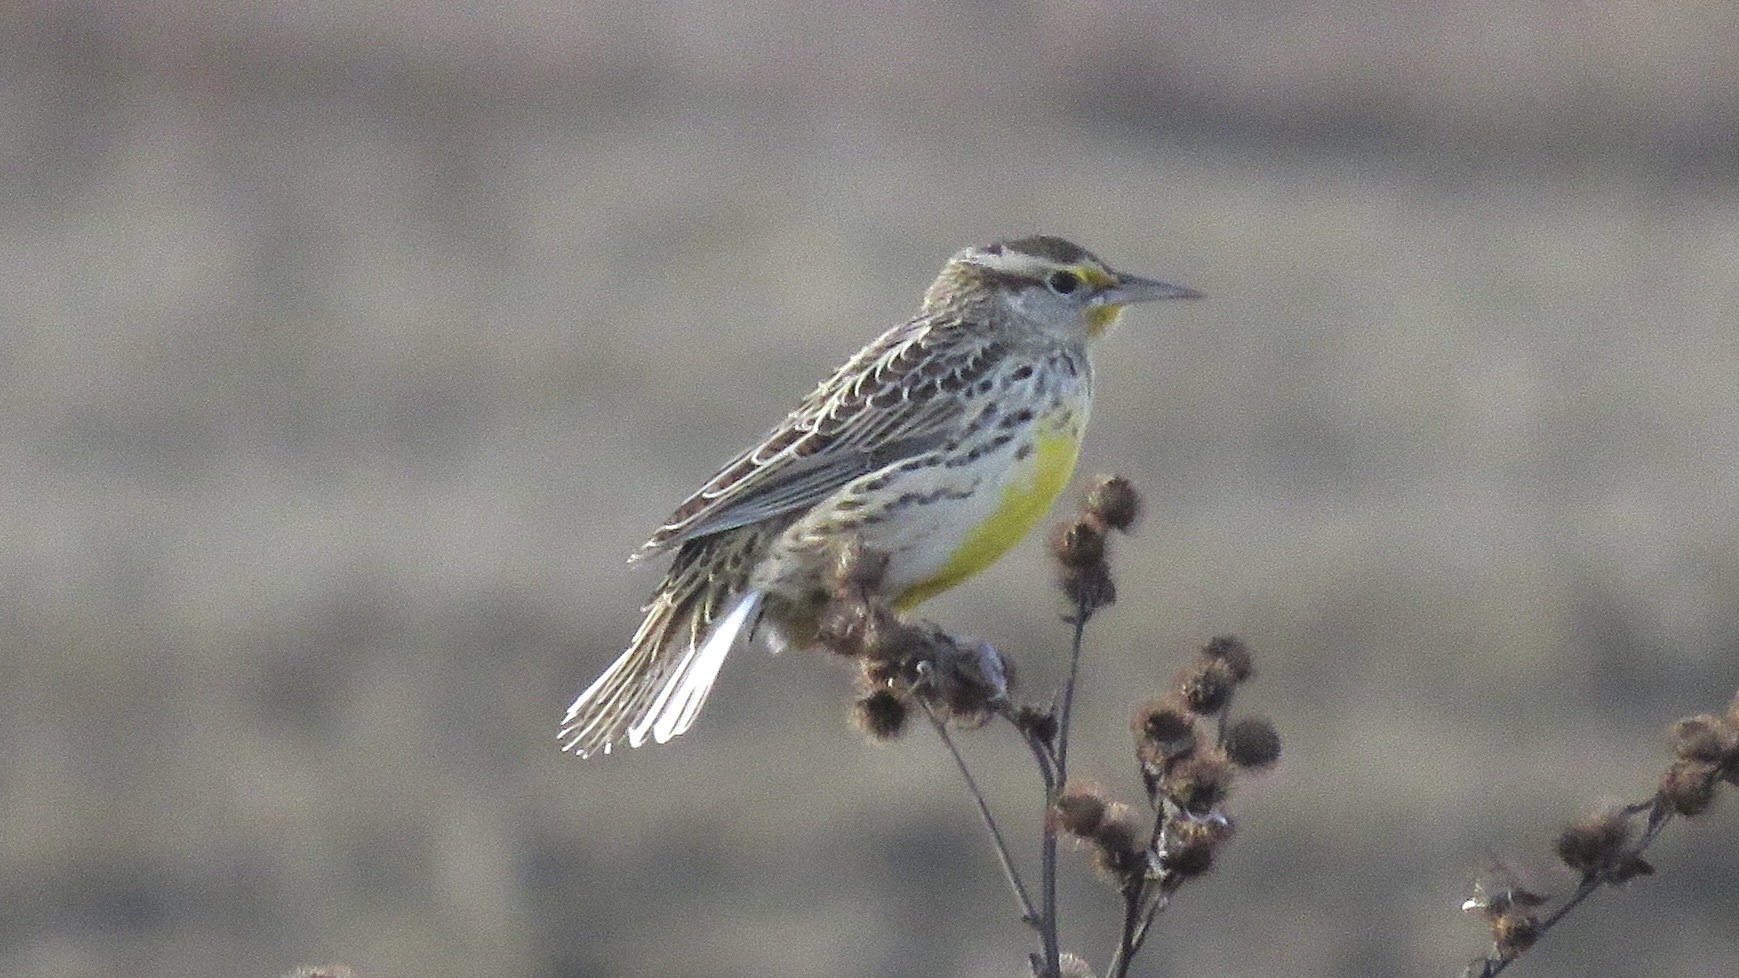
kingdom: Animalia
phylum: Chordata
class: Aves
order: Passeriformes
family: Icteridae
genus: Sturnella
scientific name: Sturnella neglecta
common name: Western meadowlark
